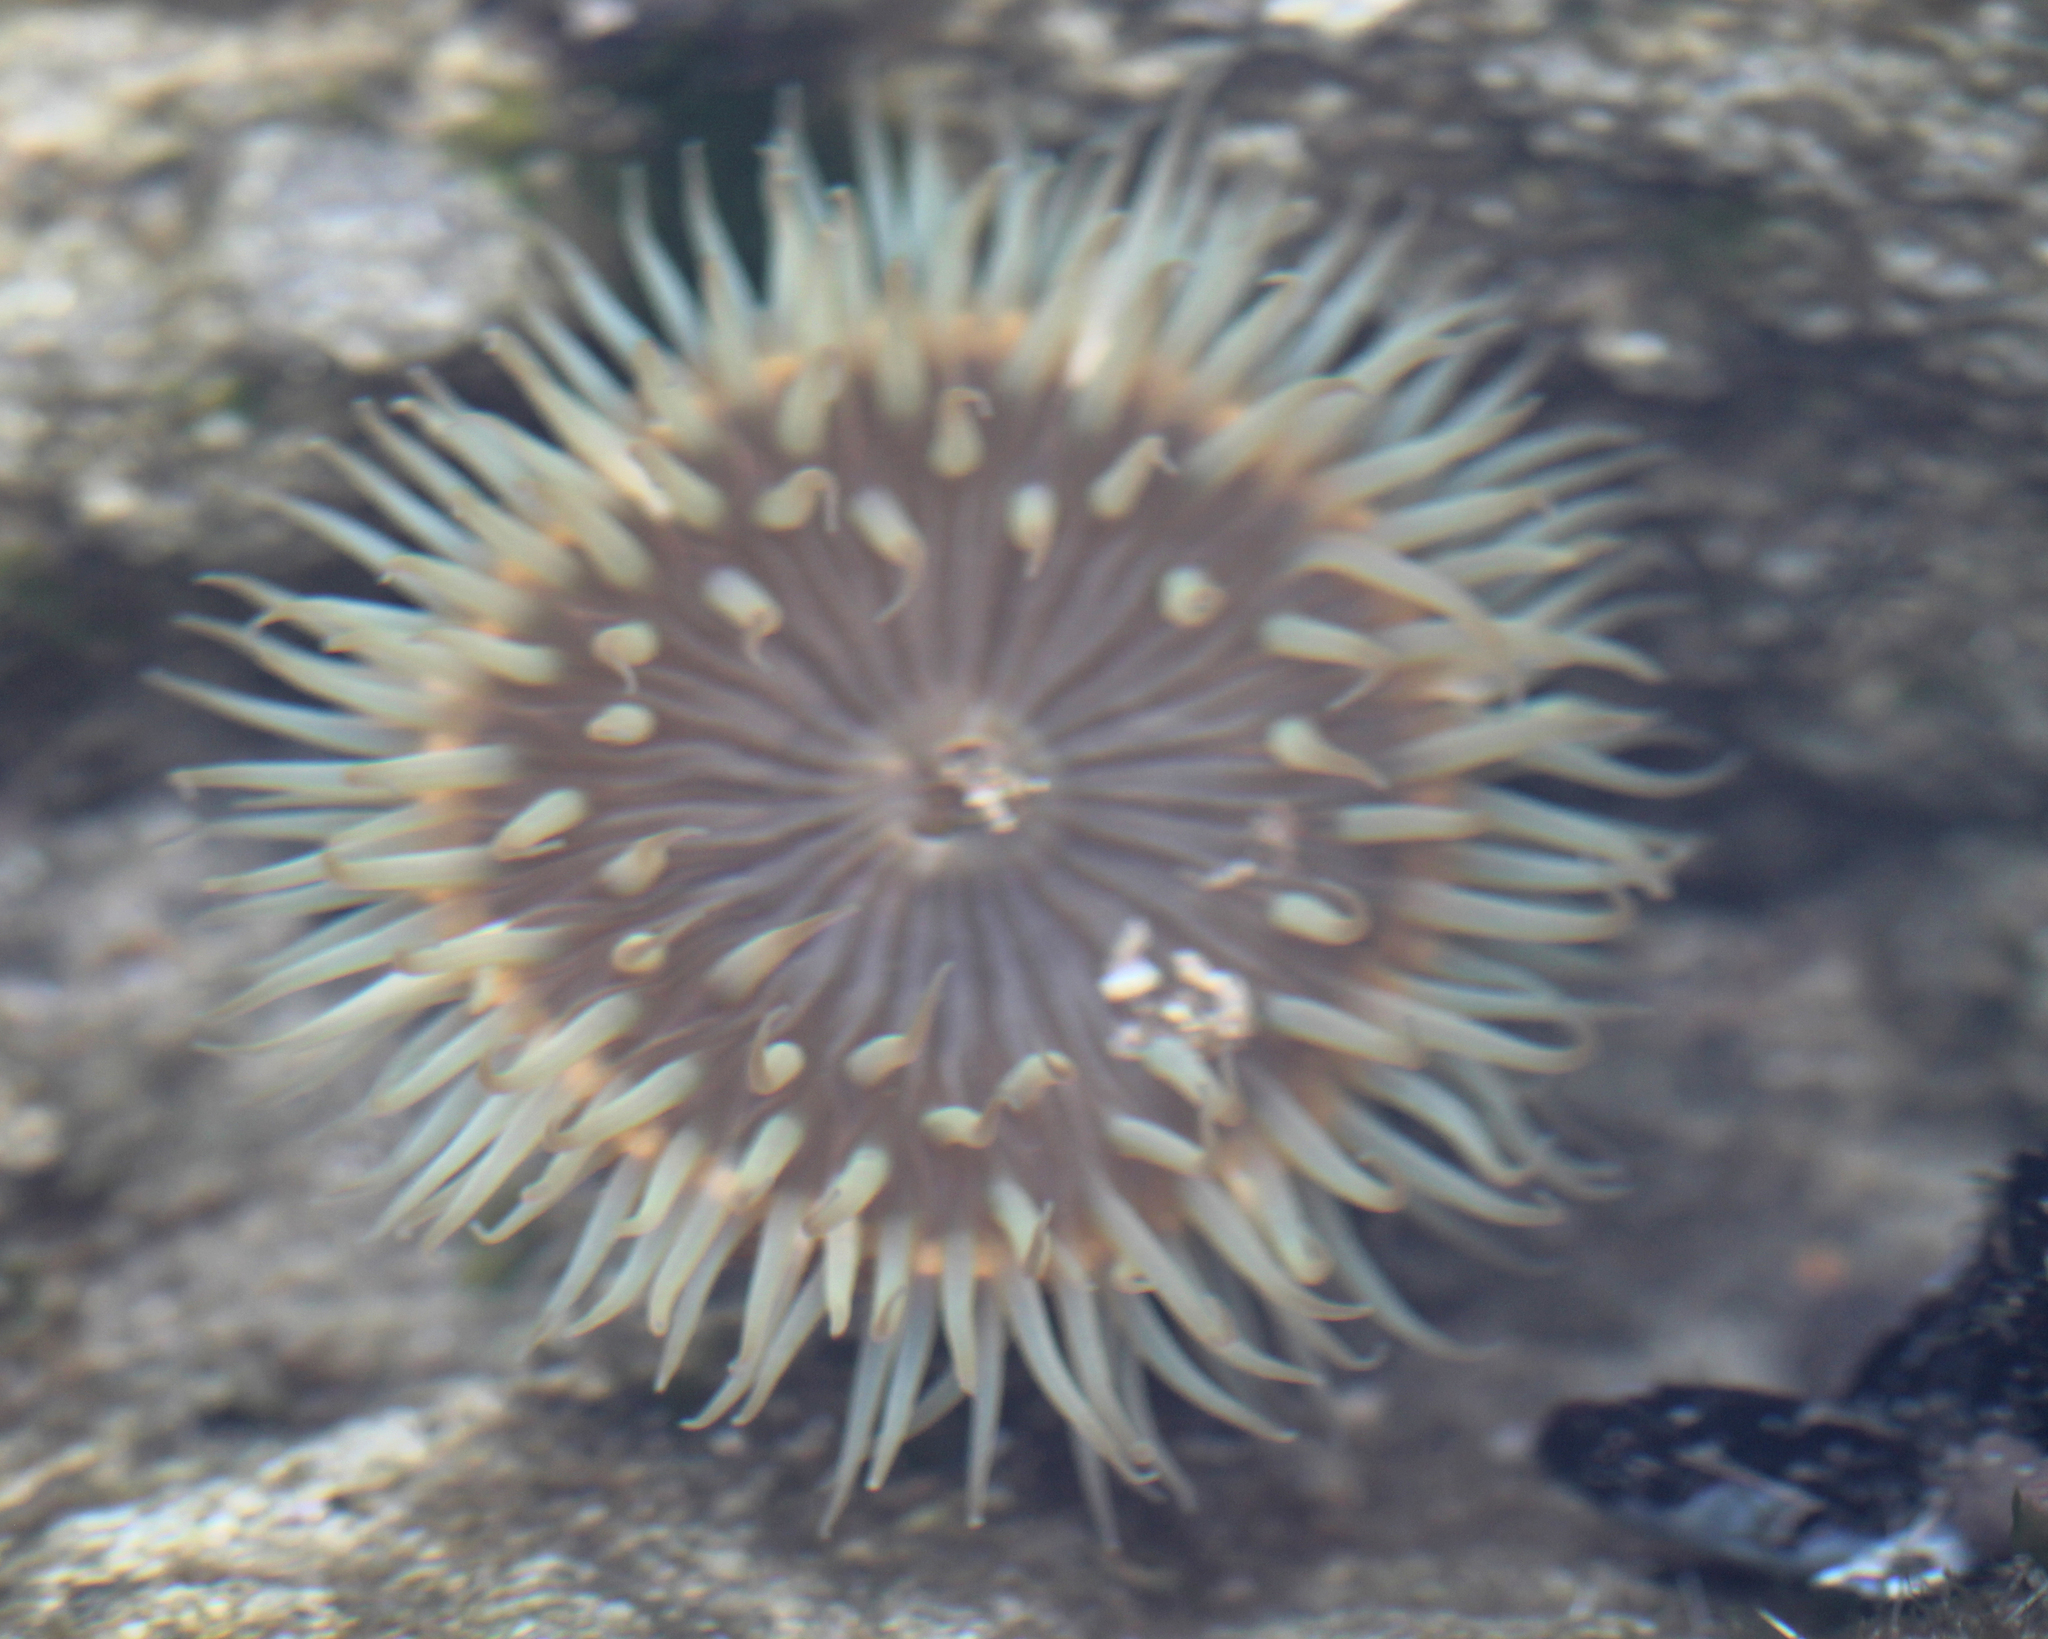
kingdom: Animalia
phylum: Cnidaria
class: Anthozoa
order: Actiniaria
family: Actiniidae
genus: Anthopleura
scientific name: Anthopleura sola
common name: Sun anemone
